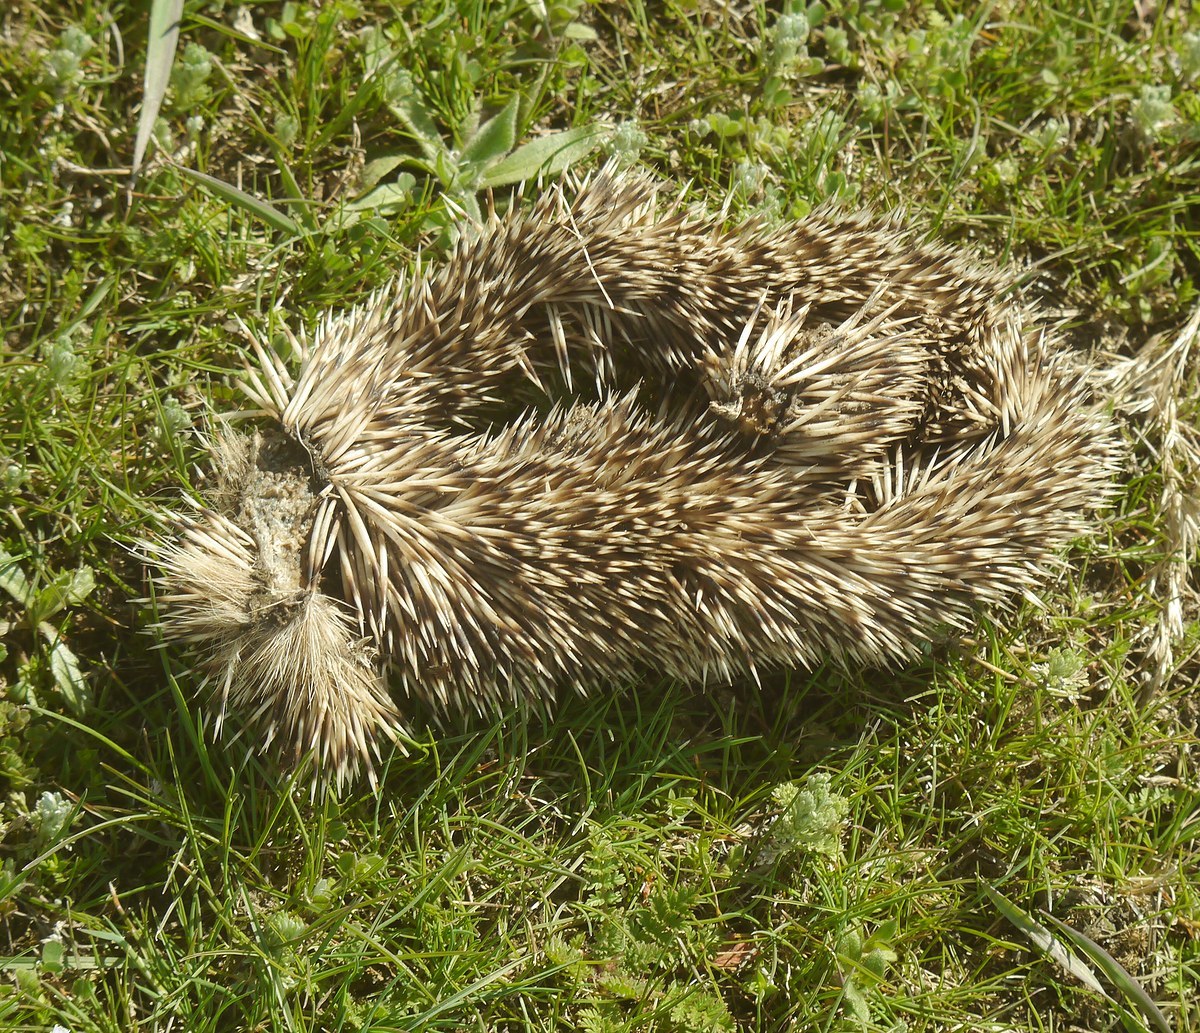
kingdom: Animalia
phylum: Chordata
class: Mammalia
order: Erinaceomorpha
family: Erinaceidae
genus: Erinaceus
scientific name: Erinaceus roumanicus
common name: Northern white-breasted hedgehog
